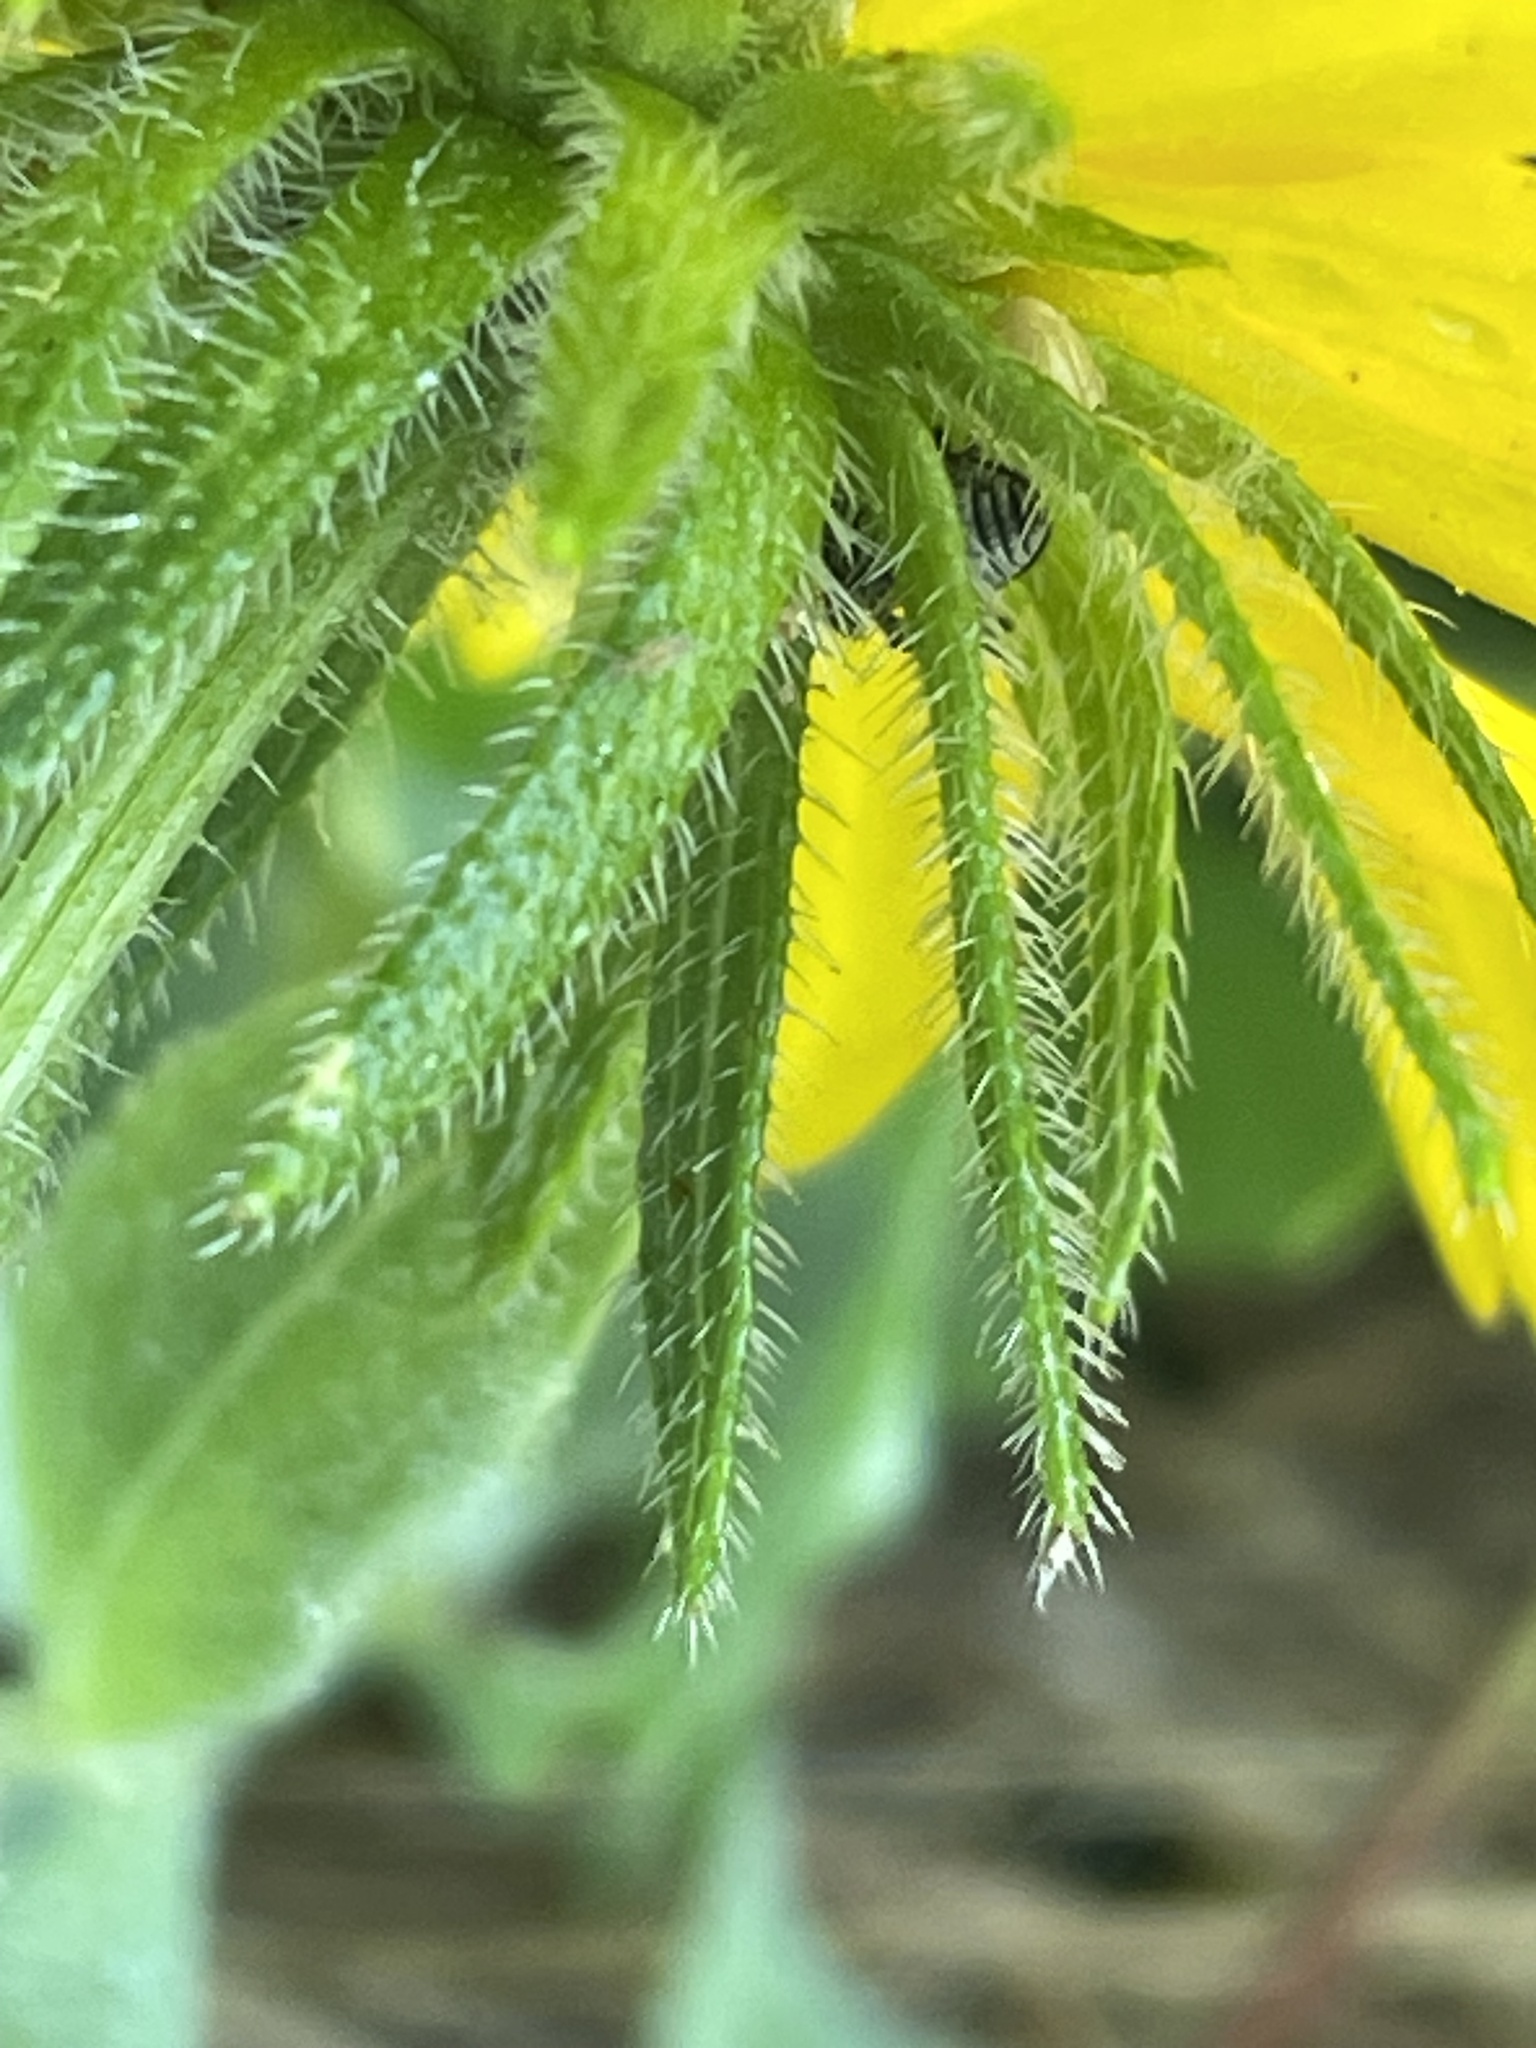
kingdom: Plantae
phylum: Tracheophyta
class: Magnoliopsida
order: Asterales
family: Asteraceae
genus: Rudbeckia
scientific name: Rudbeckia hirta
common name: Black-eyed-susan
